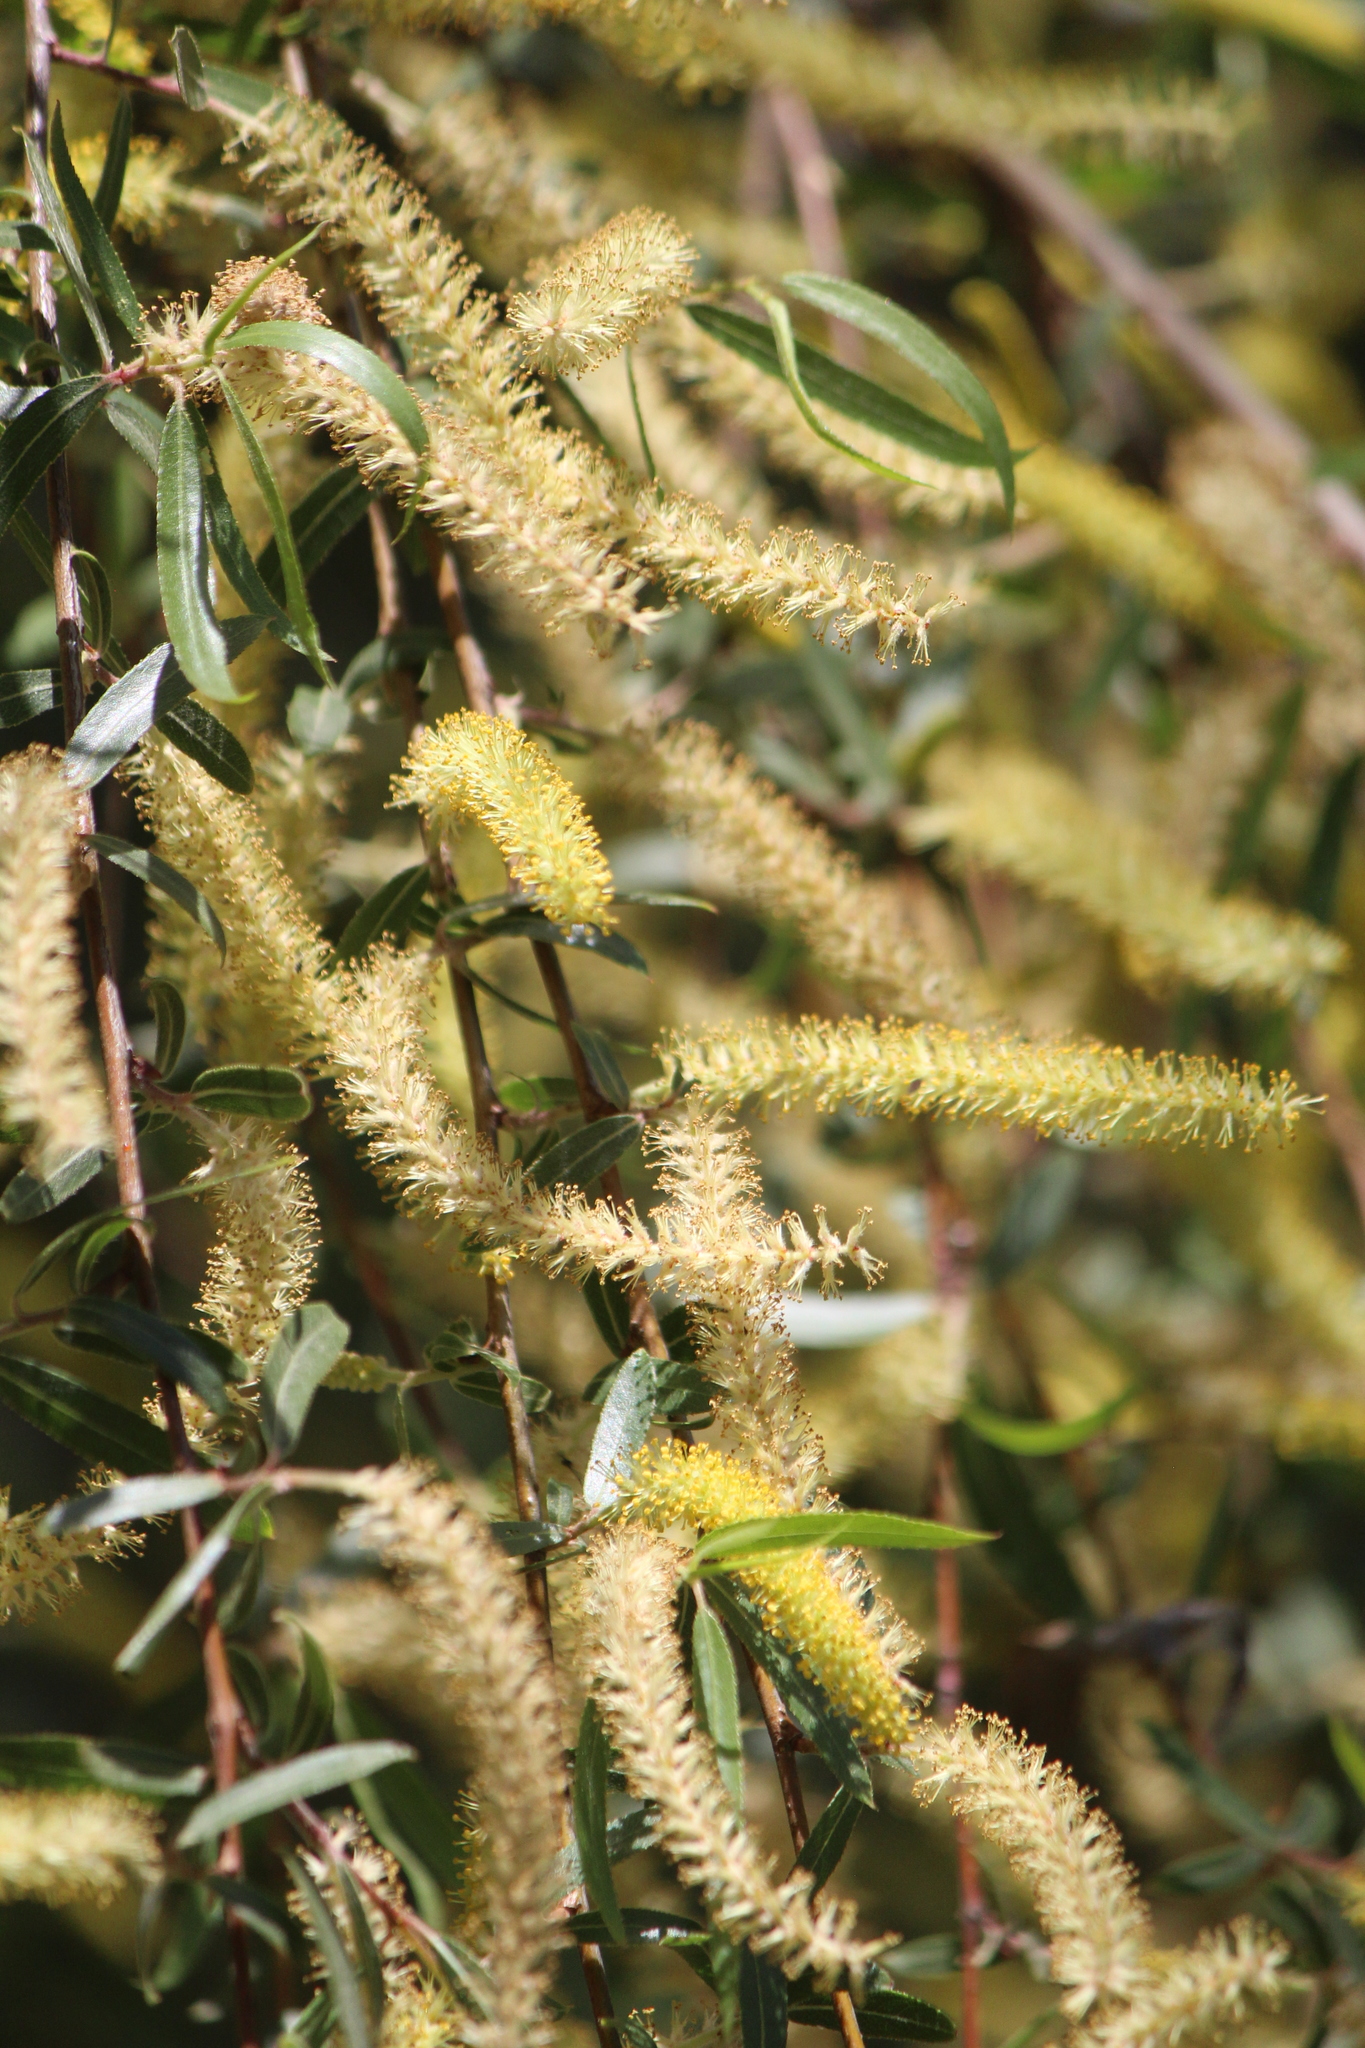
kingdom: Plantae
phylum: Tracheophyta
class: Magnoliopsida
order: Malpighiales
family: Salicaceae
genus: Salix
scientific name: Salix humboldtiana
